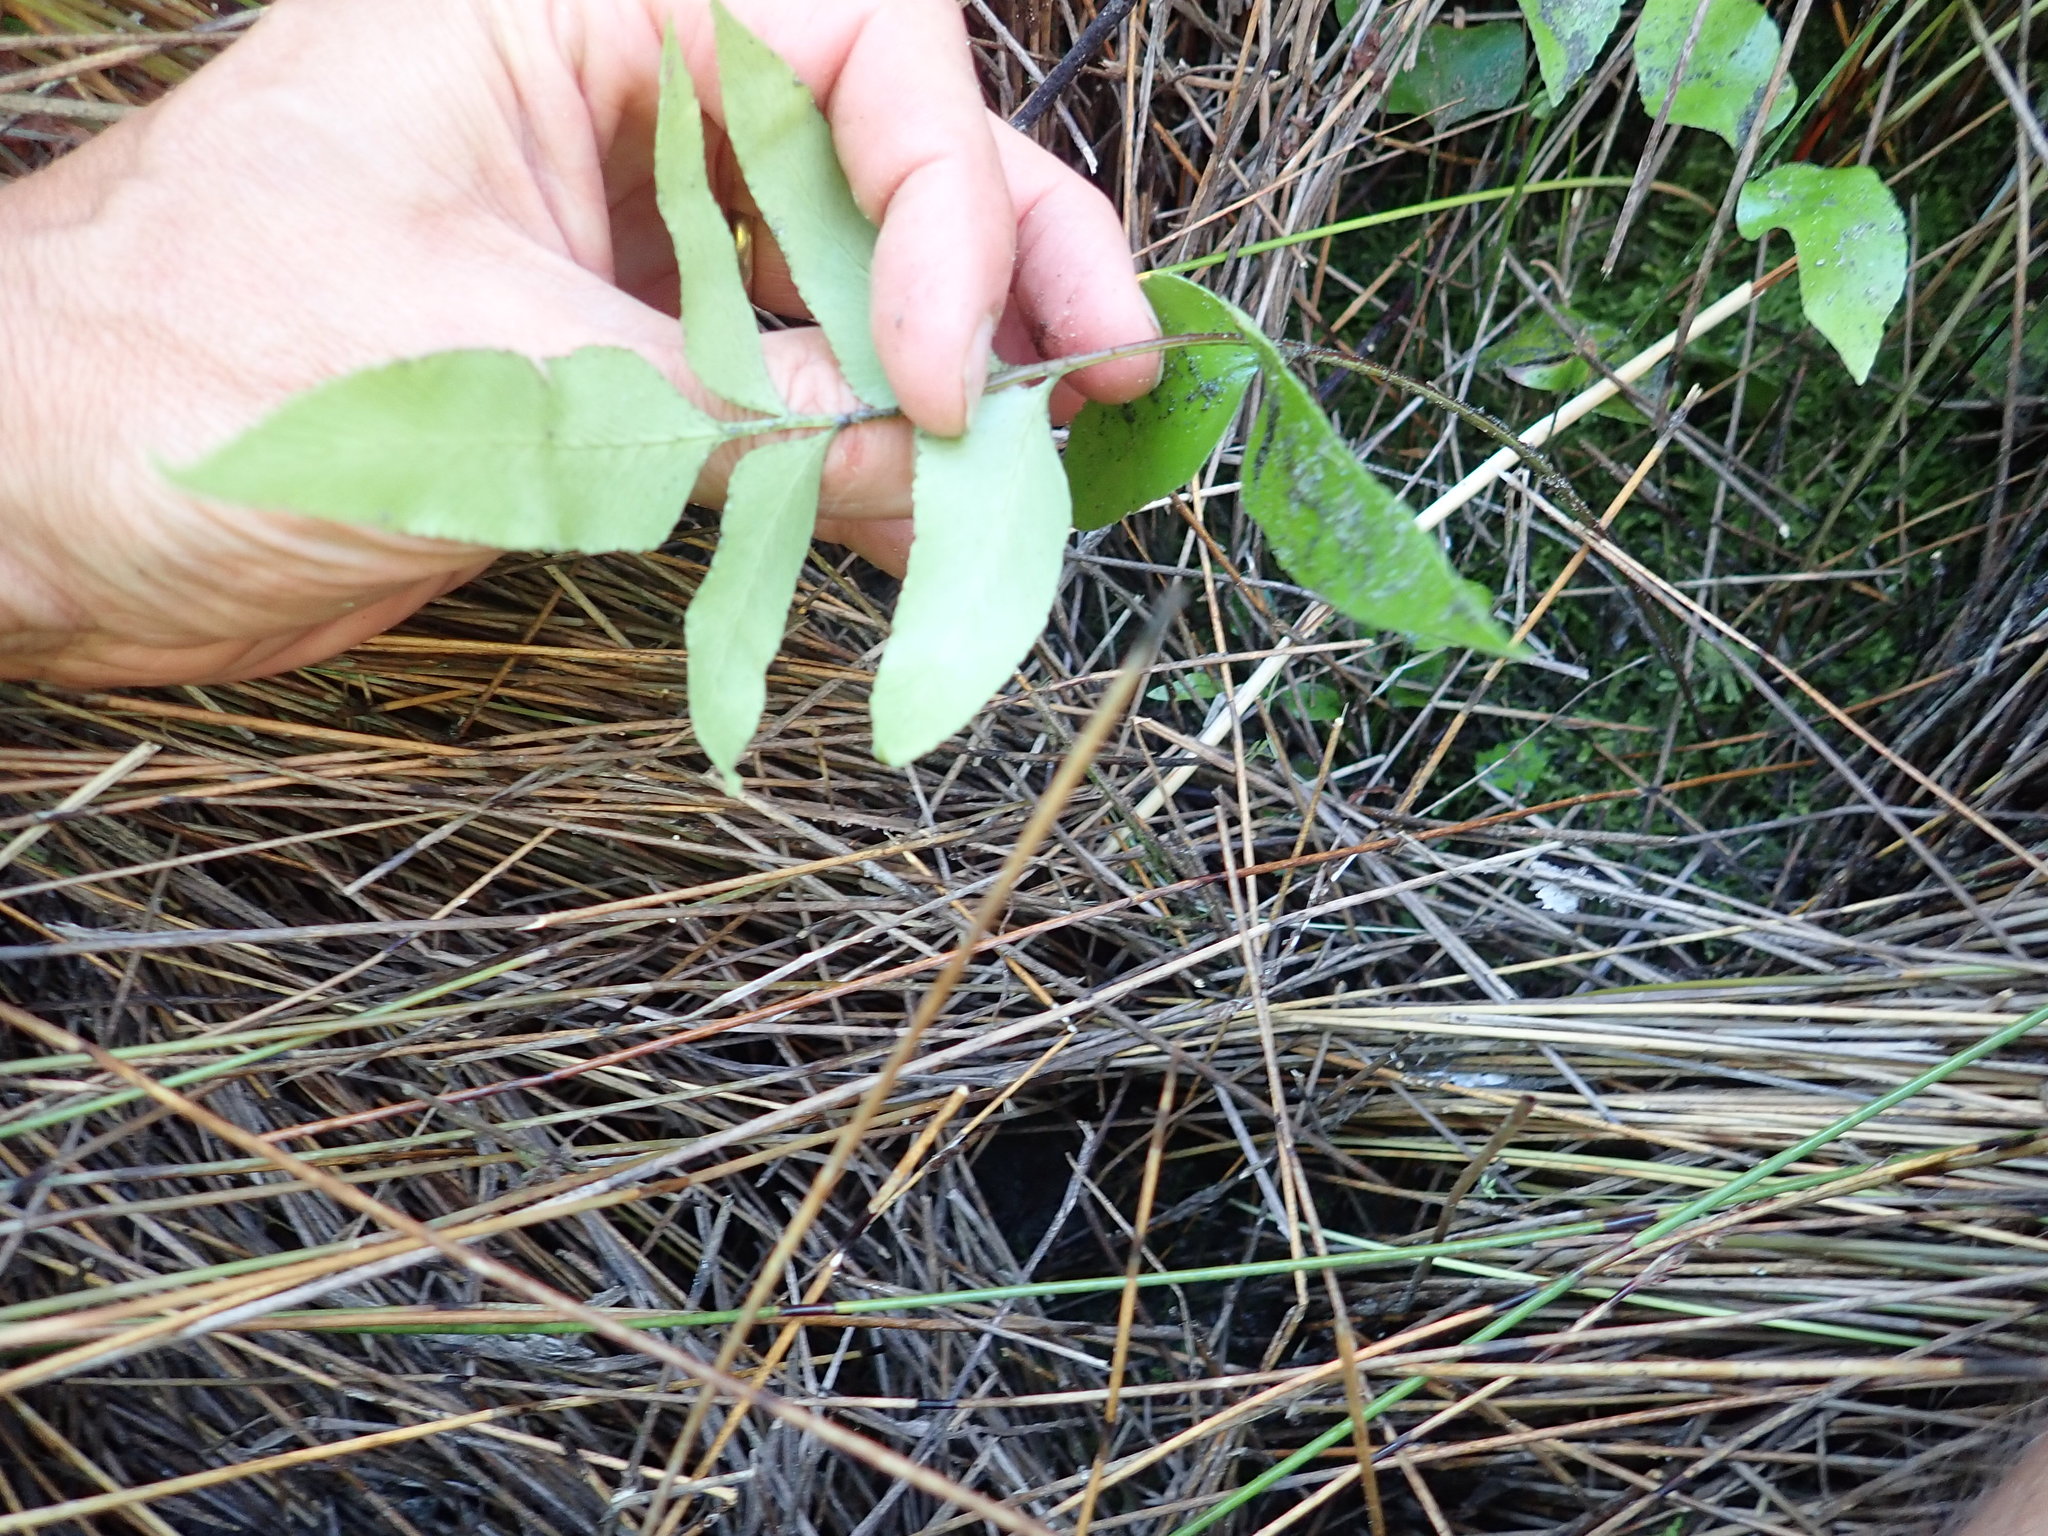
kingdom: Plantae
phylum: Tracheophyta
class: Polypodiopsida
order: Polypodiales
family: Aspleniaceae
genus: Asplenium
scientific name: Asplenium oblongifolium
